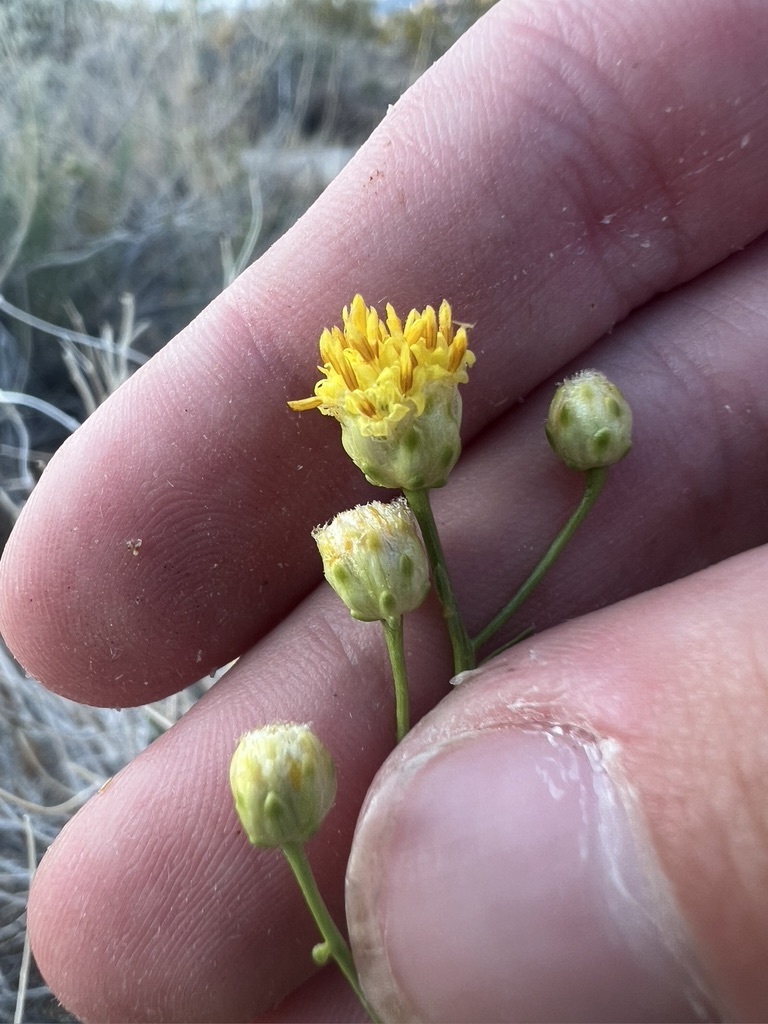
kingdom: Plantae
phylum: Tracheophyta
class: Magnoliopsida
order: Asterales
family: Asteraceae
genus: Acamptopappus
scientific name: Acamptopappus sphaerocephalus
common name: Goldenhead
